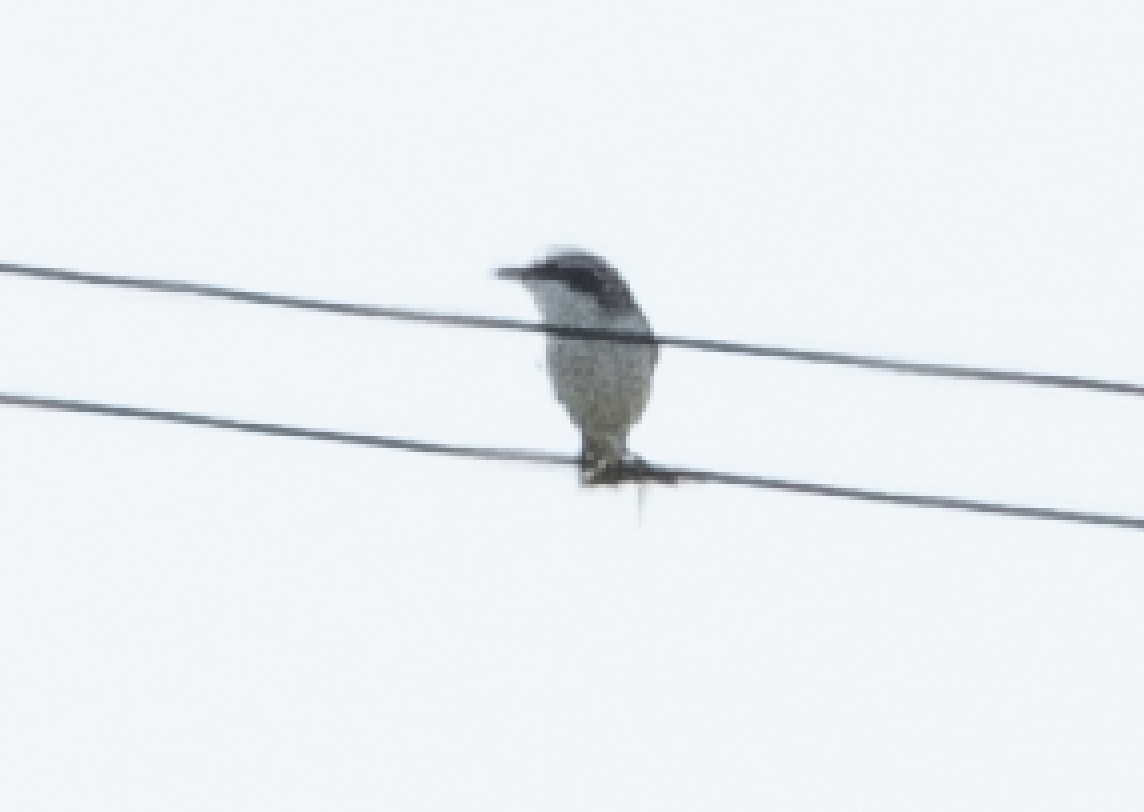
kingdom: Animalia
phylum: Chordata
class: Aves
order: Passeriformes
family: Laniidae
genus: Lanius
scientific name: Lanius excubitor
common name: Great grey shrike
